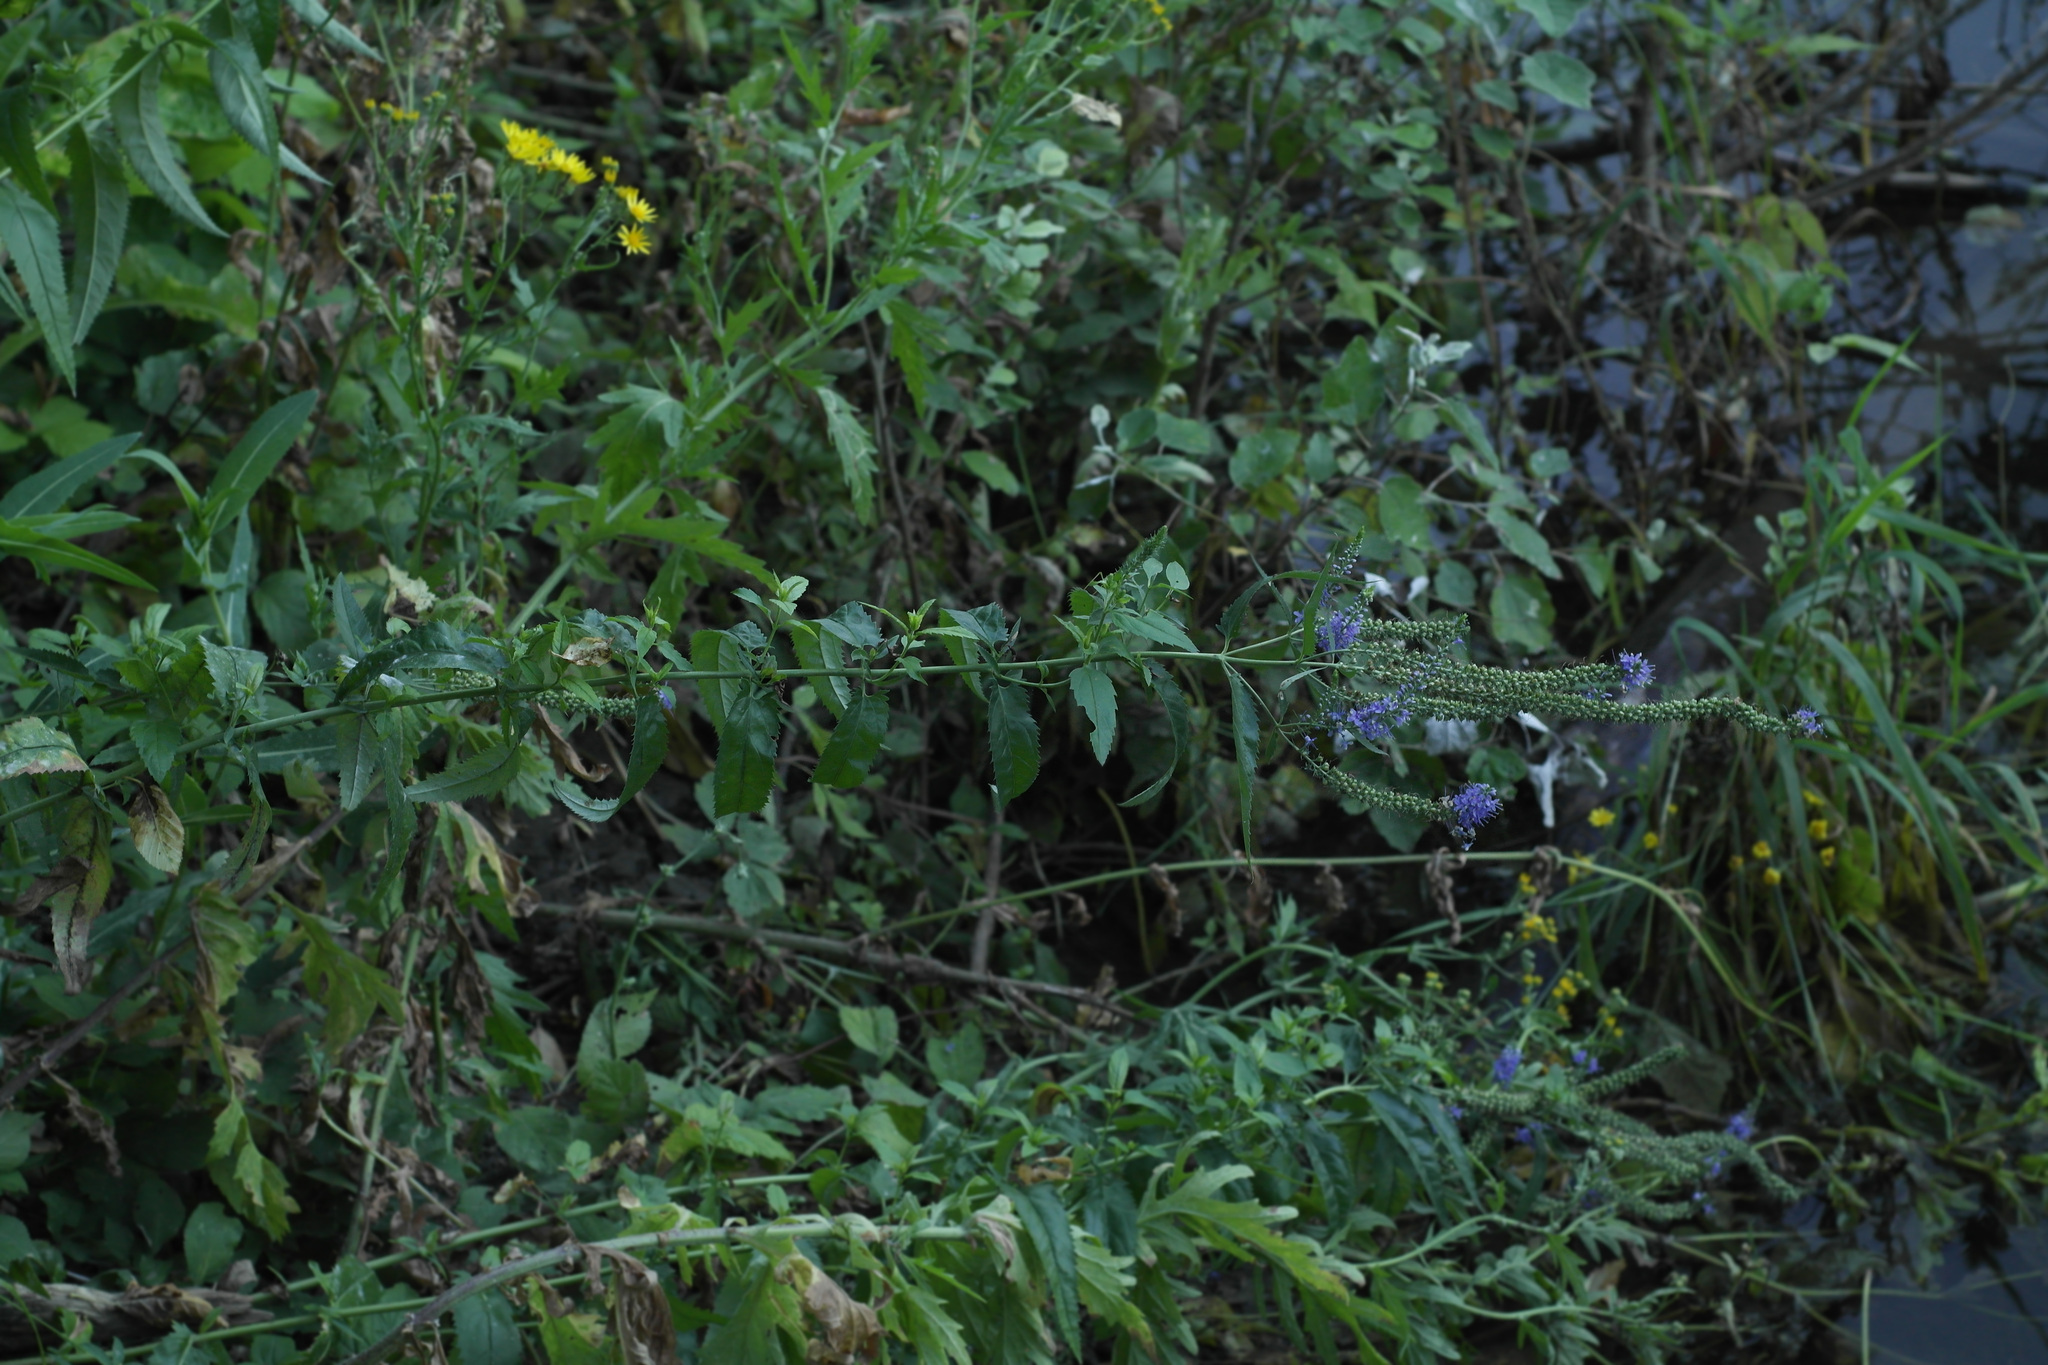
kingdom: Plantae
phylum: Tracheophyta
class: Magnoliopsida
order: Lamiales
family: Plantaginaceae
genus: Veronica
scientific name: Veronica longifolia
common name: Garden speedwell
